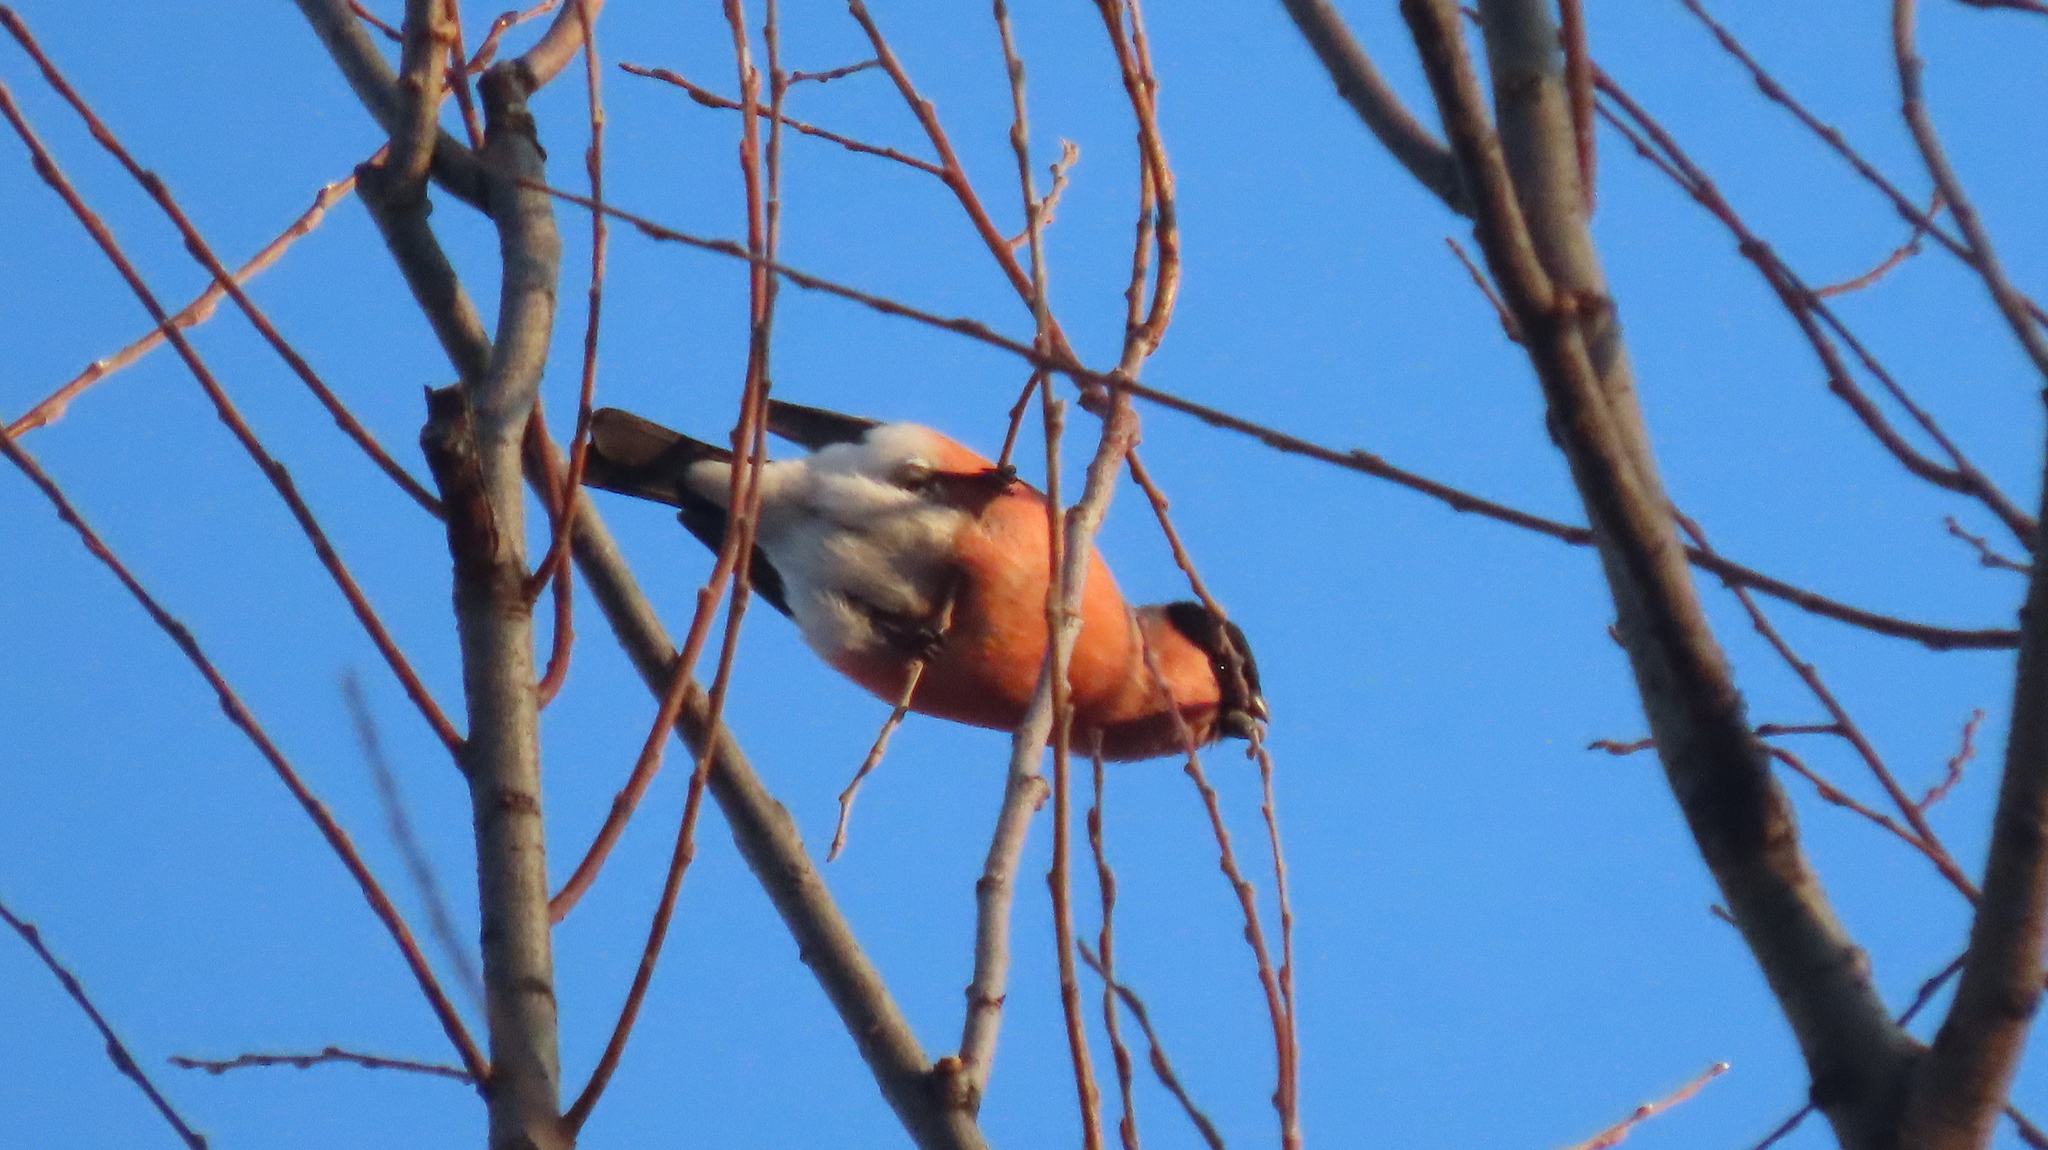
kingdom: Animalia
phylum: Chordata
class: Aves
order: Passeriformes
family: Fringillidae
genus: Pyrrhula
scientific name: Pyrrhula pyrrhula
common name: Eurasian bullfinch
